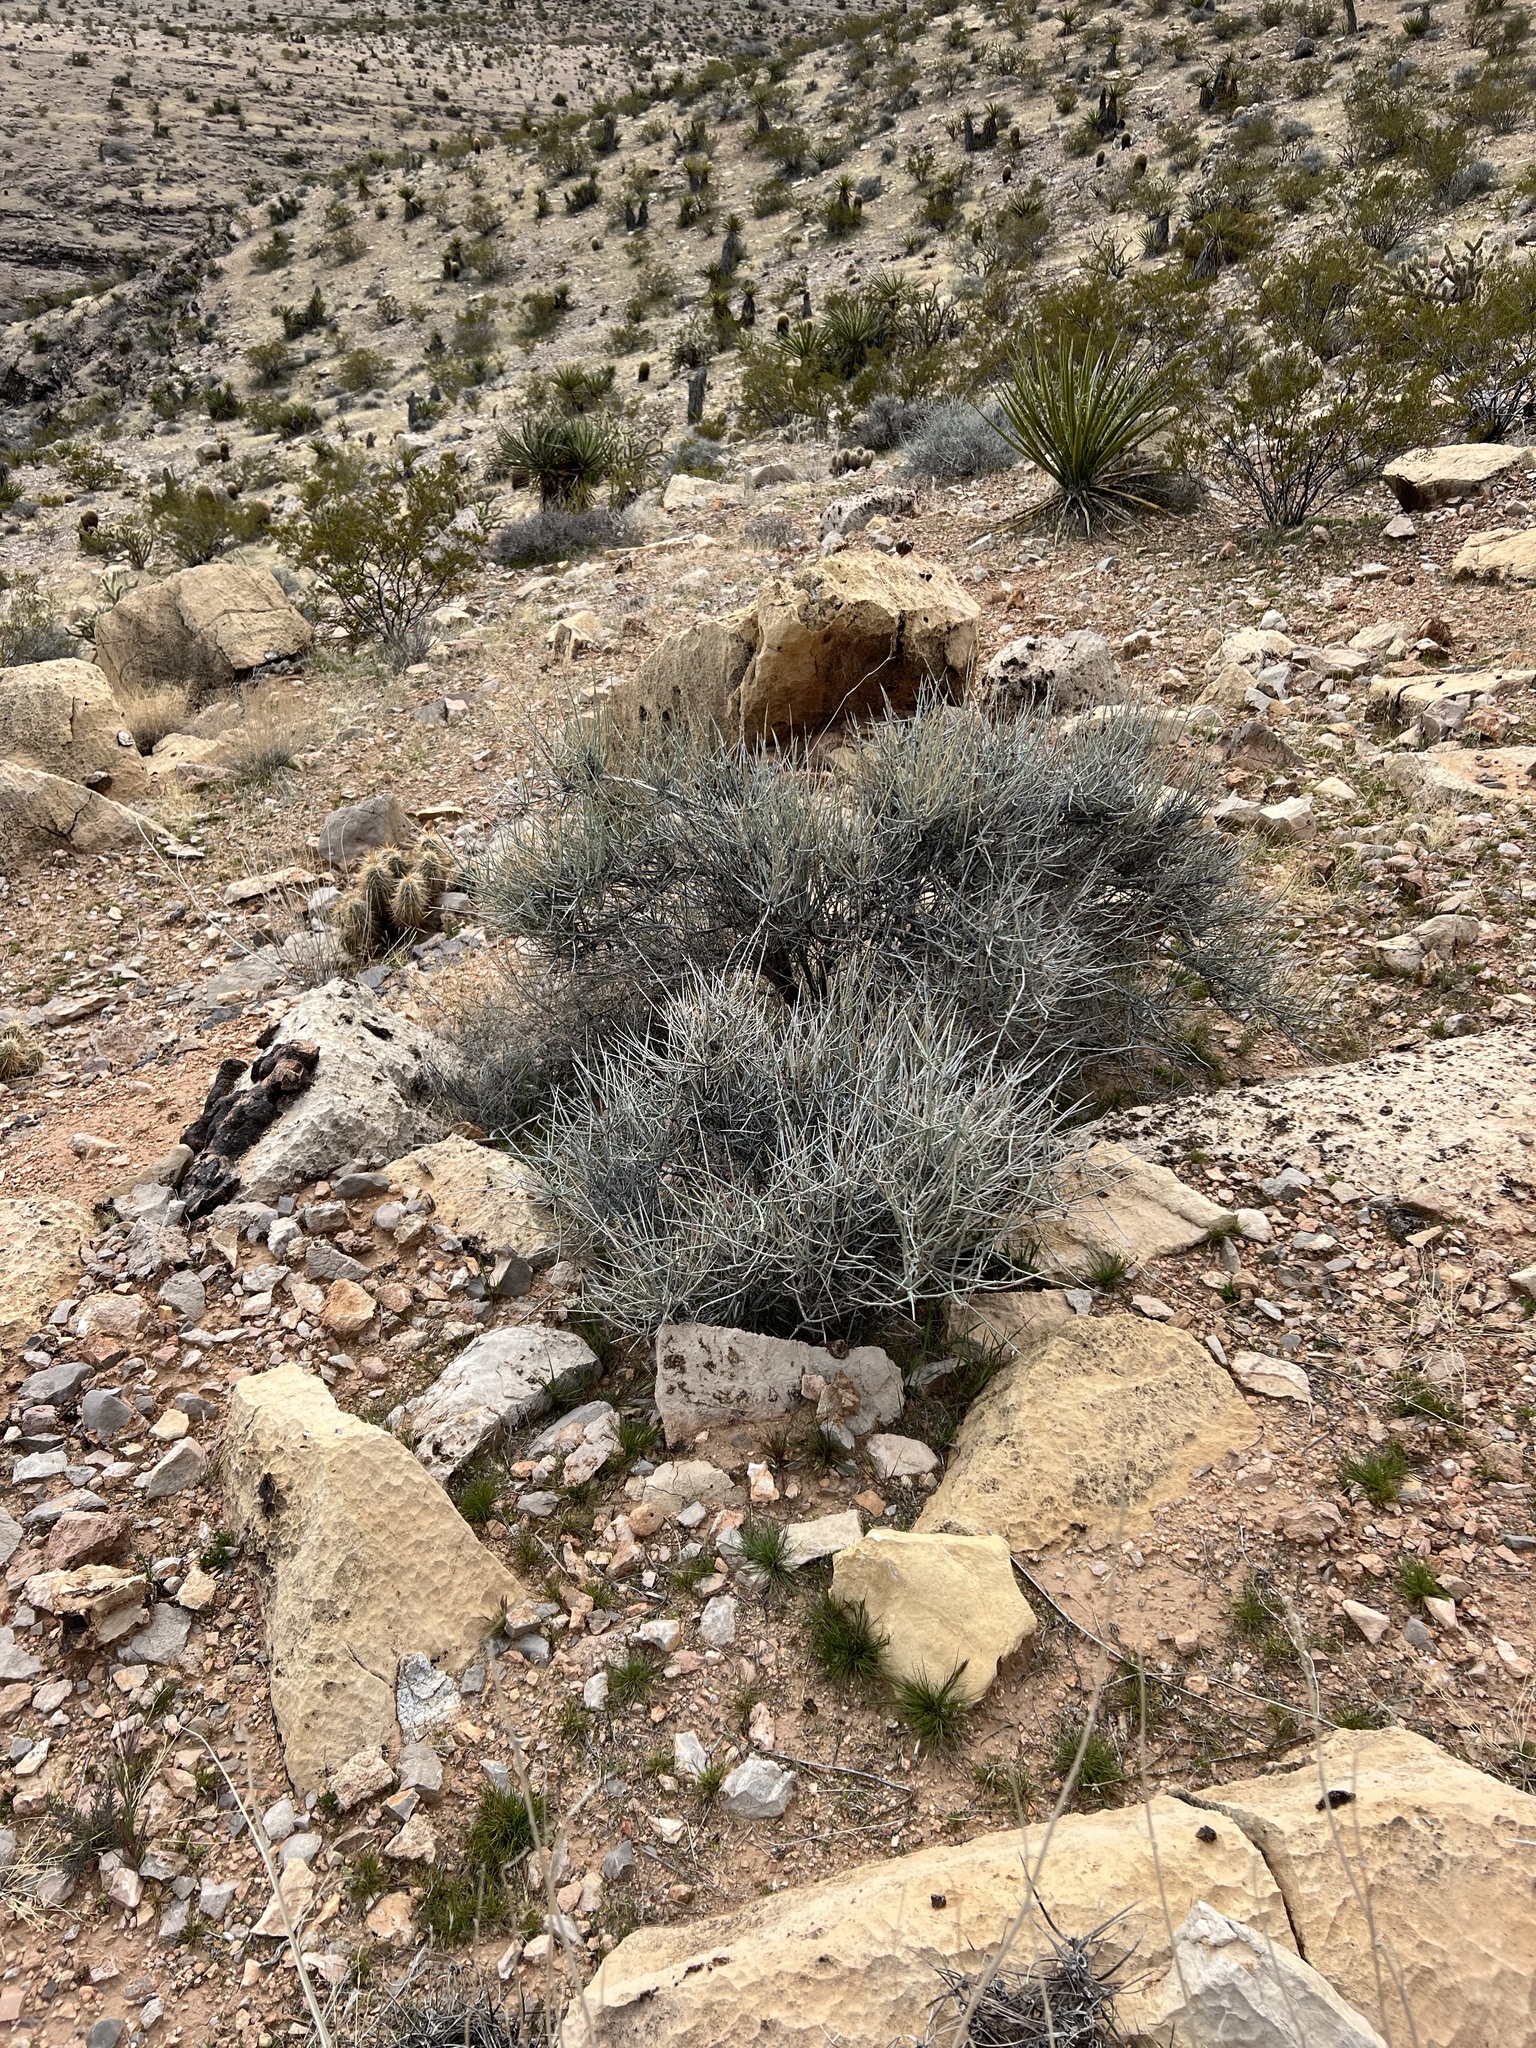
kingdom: Plantae
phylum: Tracheophyta
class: Gnetopsida
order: Ephedrales
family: Ephedraceae
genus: Ephedra
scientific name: Ephedra nevadensis
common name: Gray ephedra
